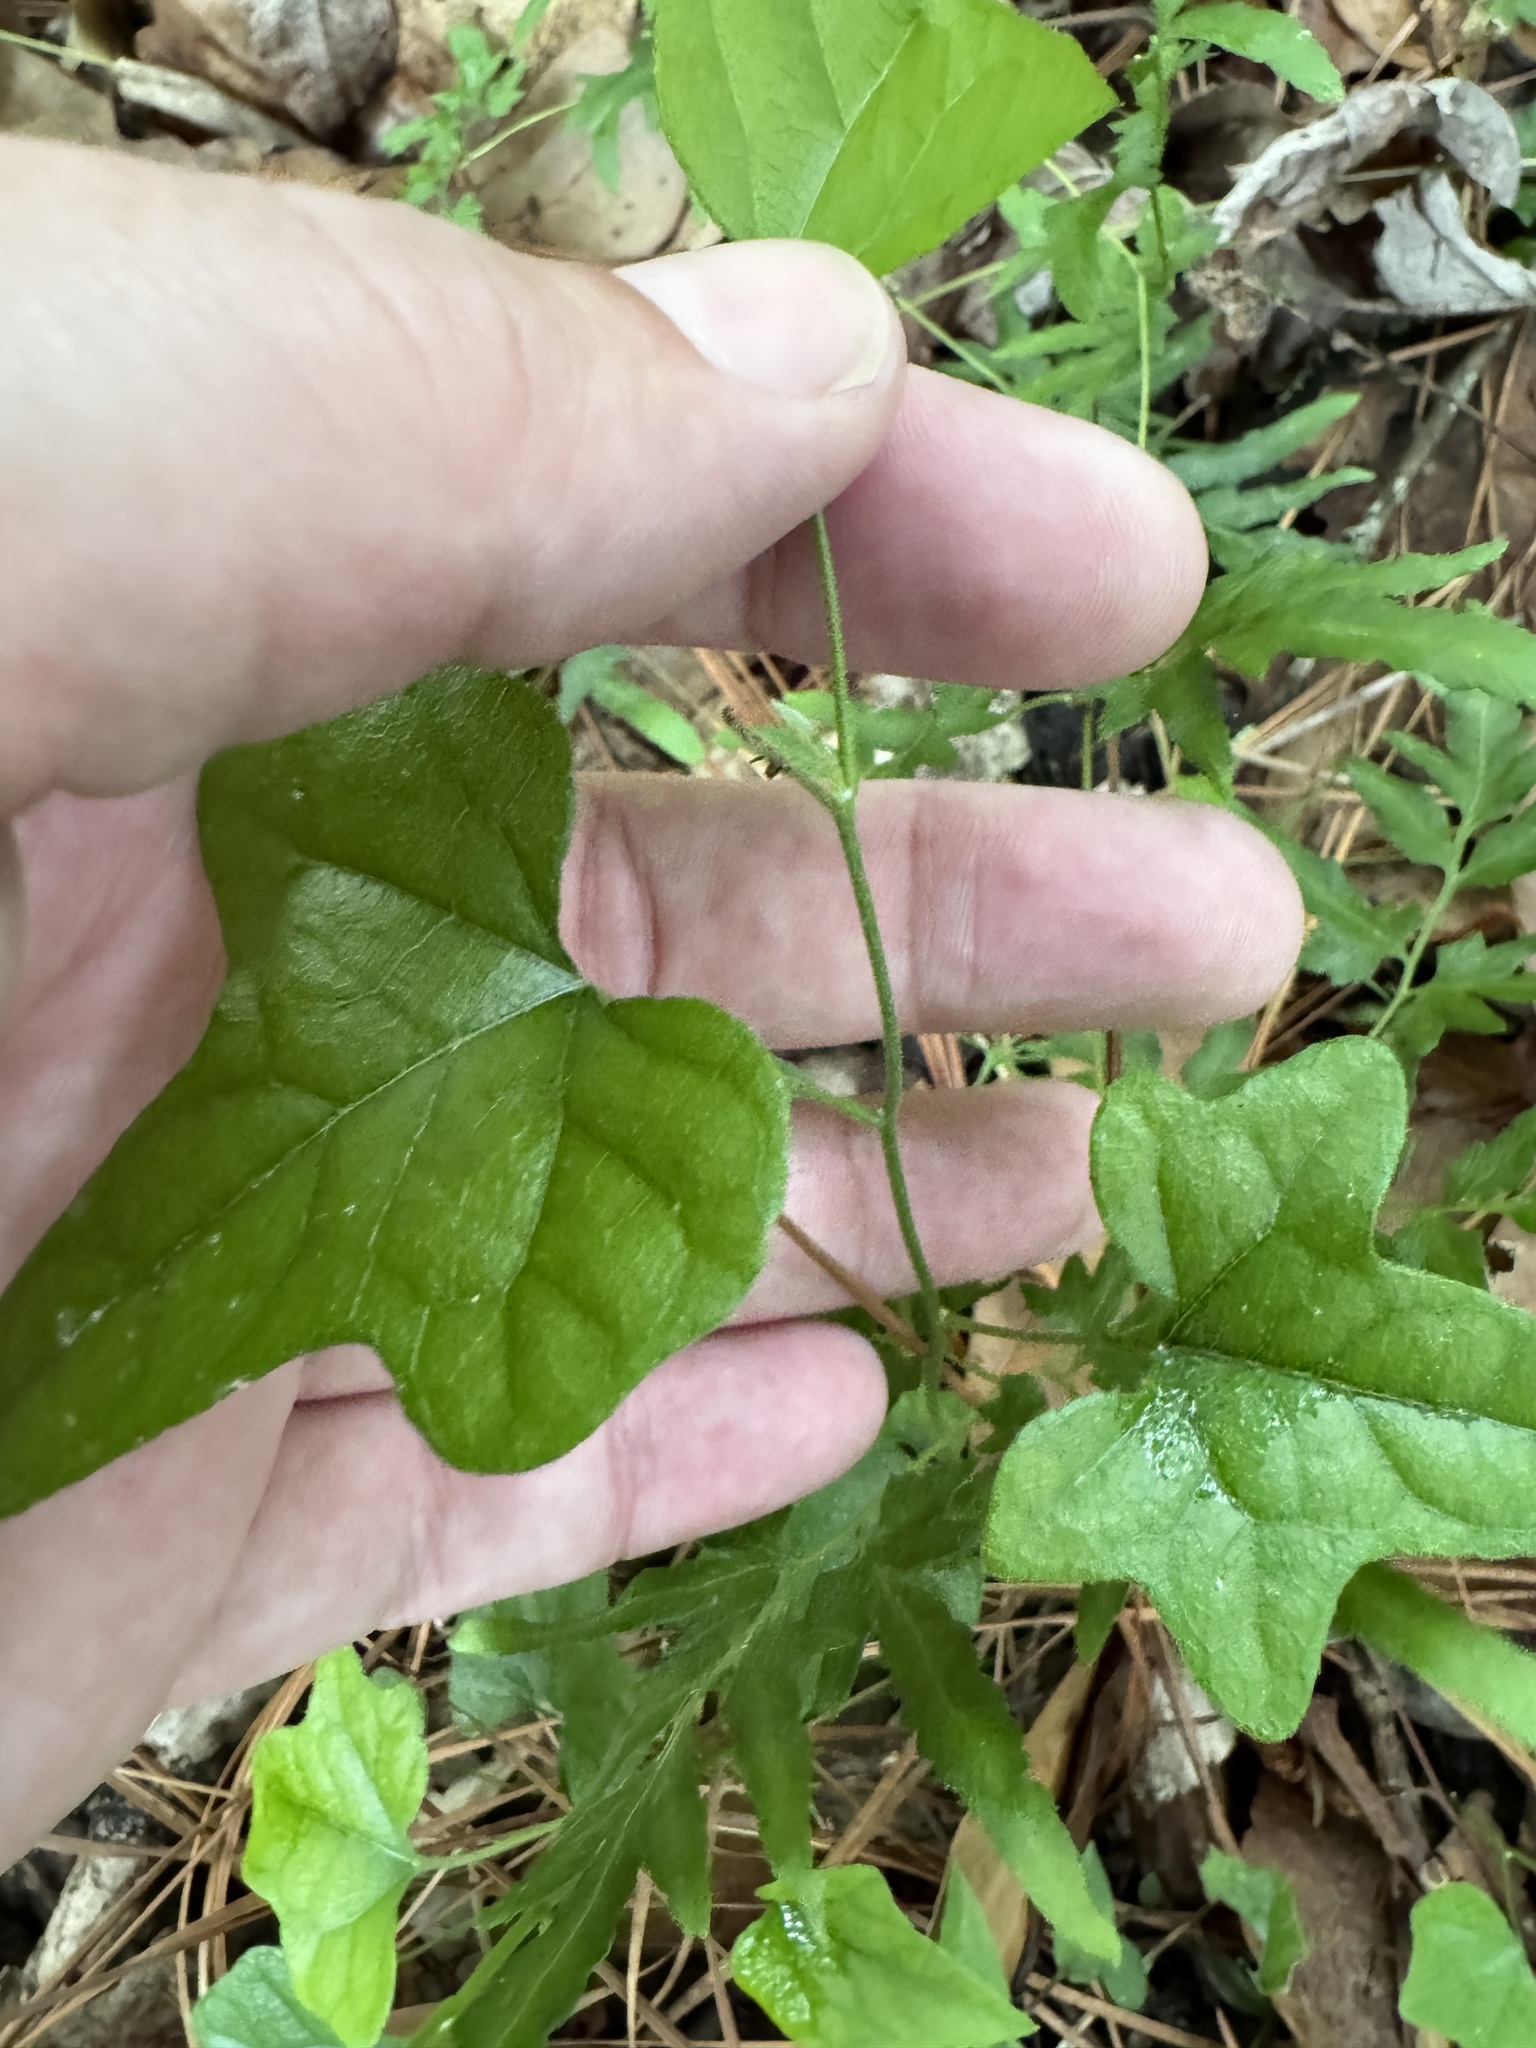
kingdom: Plantae
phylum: Tracheophyta
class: Magnoliopsida
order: Ranunculales
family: Menispermaceae
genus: Cocculus
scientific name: Cocculus carolinus
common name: Carolina moonseed
